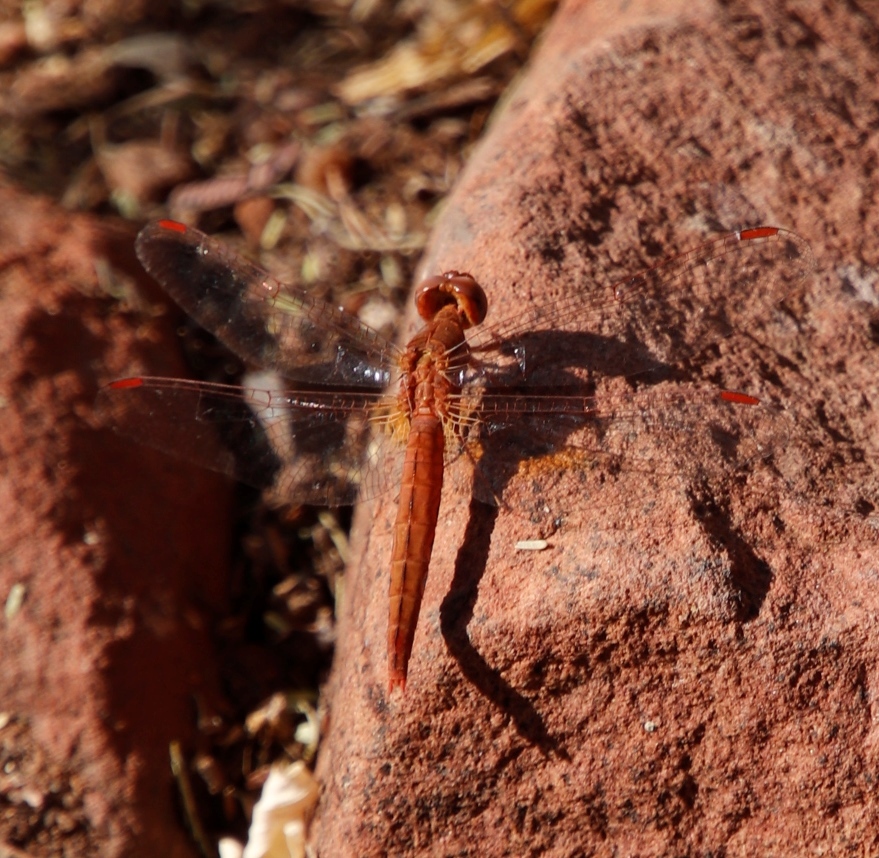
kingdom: Animalia
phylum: Arthropoda
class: Insecta
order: Odonata
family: Libellulidae
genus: Crocothemis
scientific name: Crocothemis sanguinolenta
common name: Little scarlet
